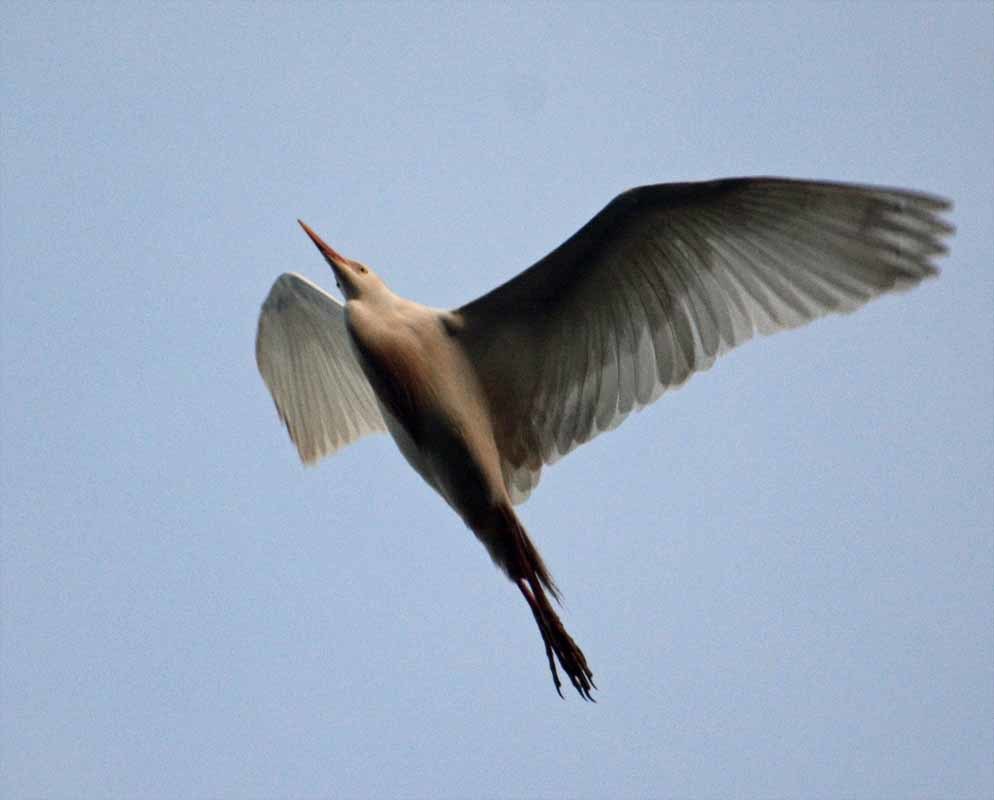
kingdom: Animalia
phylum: Chordata
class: Aves
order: Pelecaniformes
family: Ardeidae
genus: Ardea
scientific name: Ardea alba
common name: Great egret
